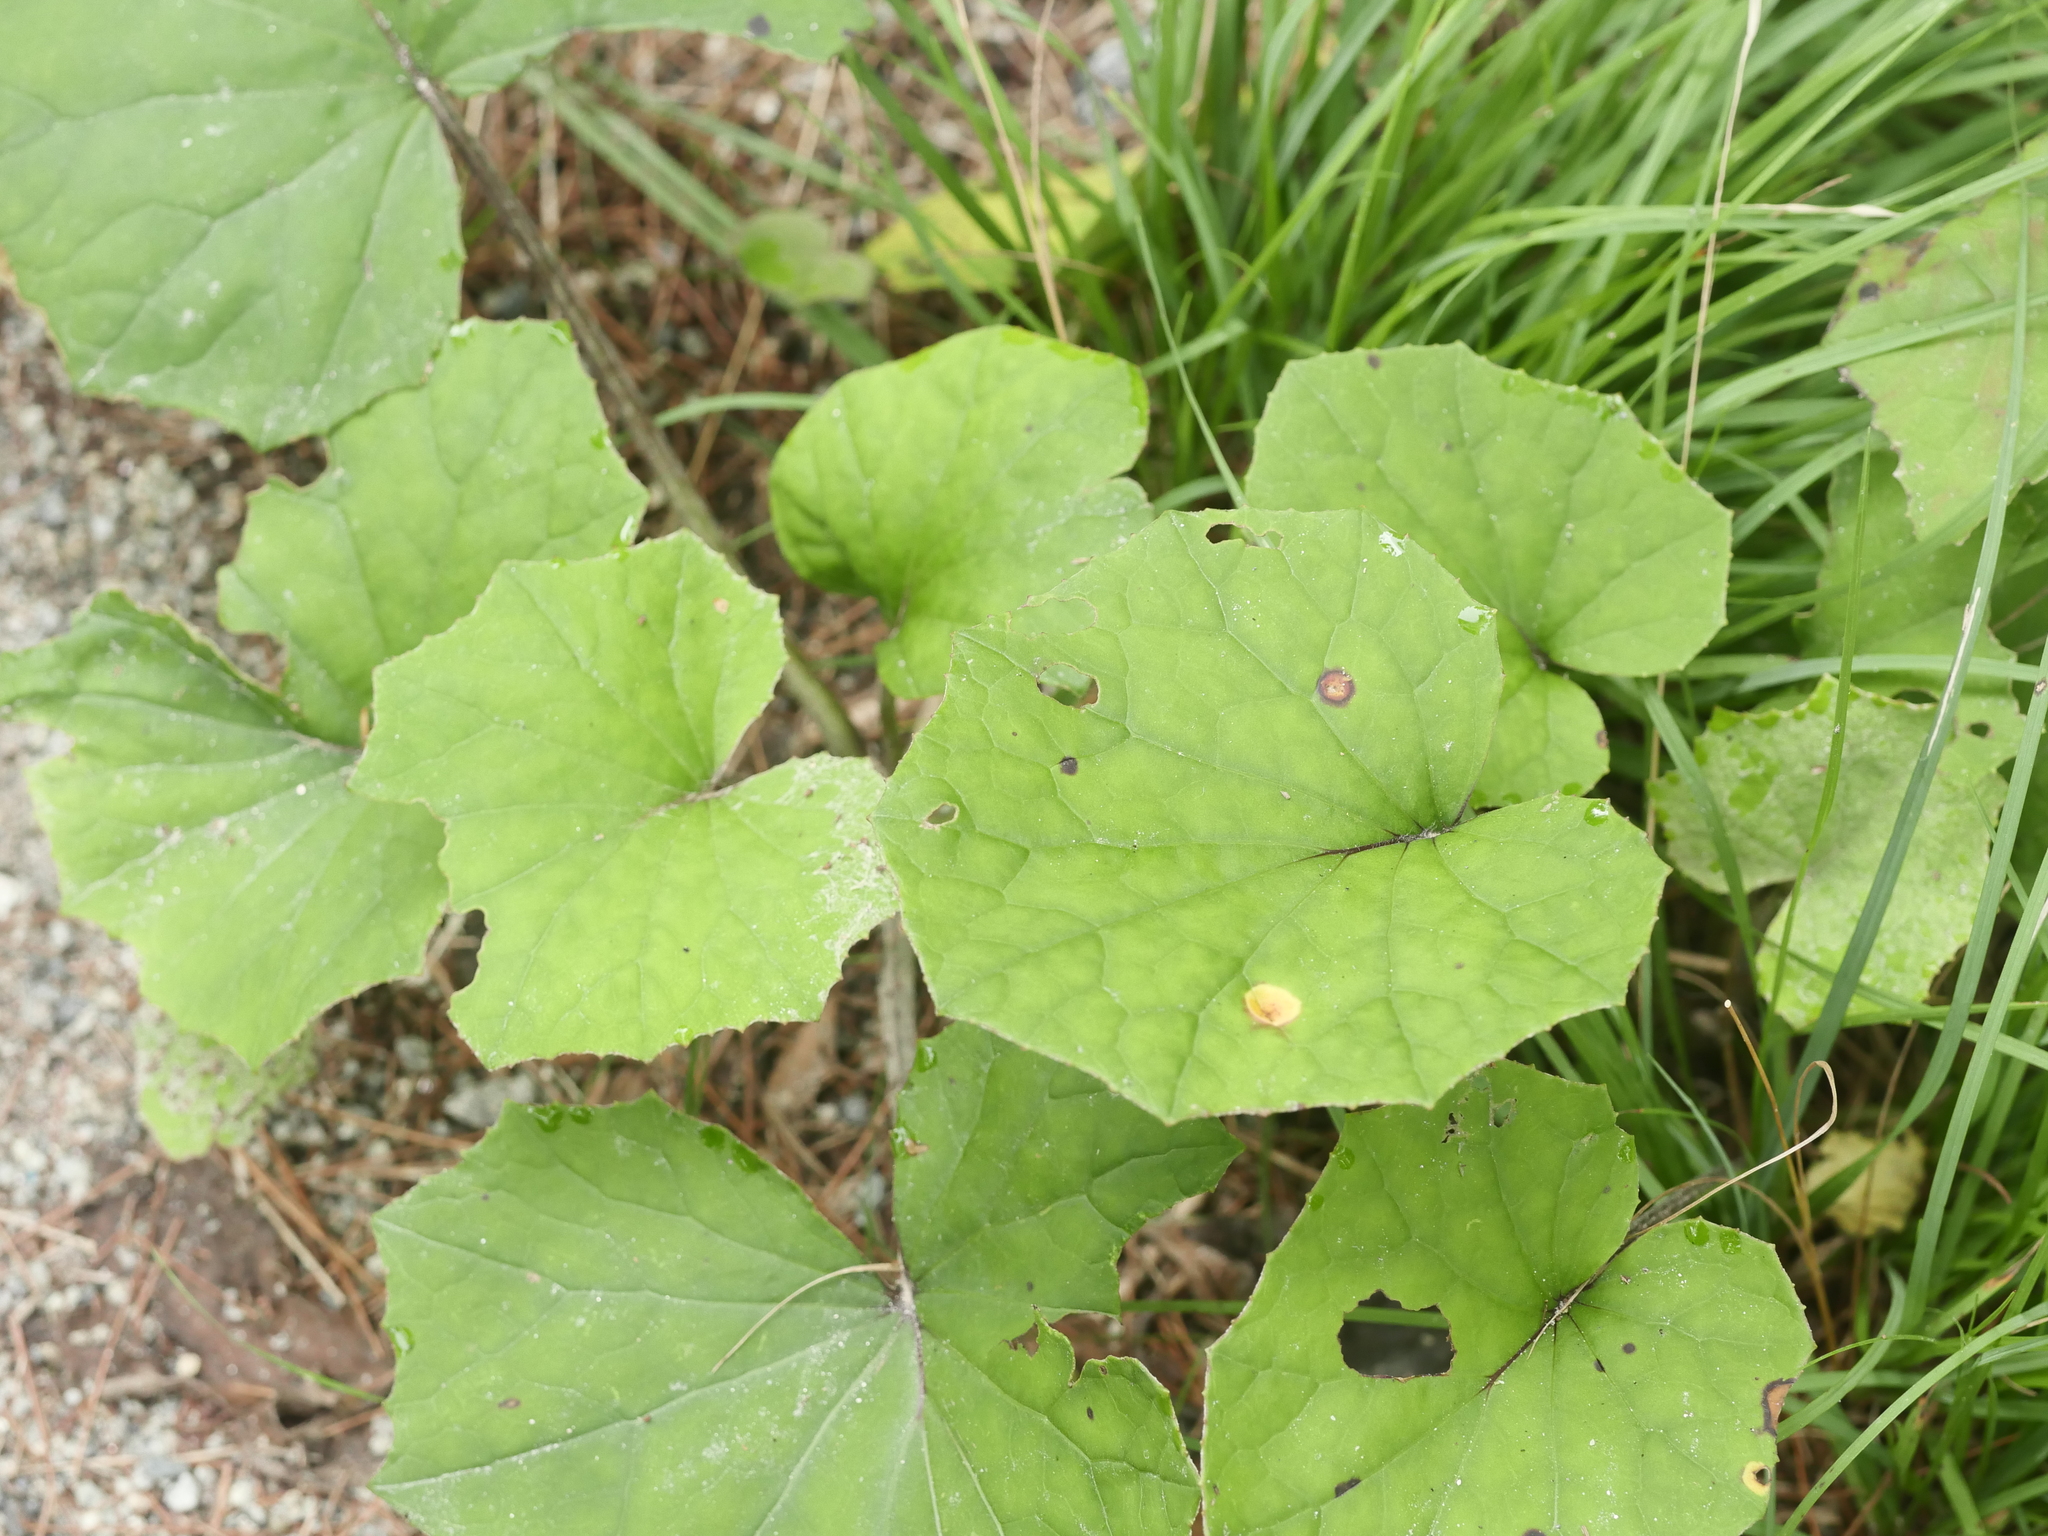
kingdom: Plantae
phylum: Tracheophyta
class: Magnoliopsida
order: Asterales
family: Asteraceae
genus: Tussilago
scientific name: Tussilago farfara
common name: Coltsfoot
